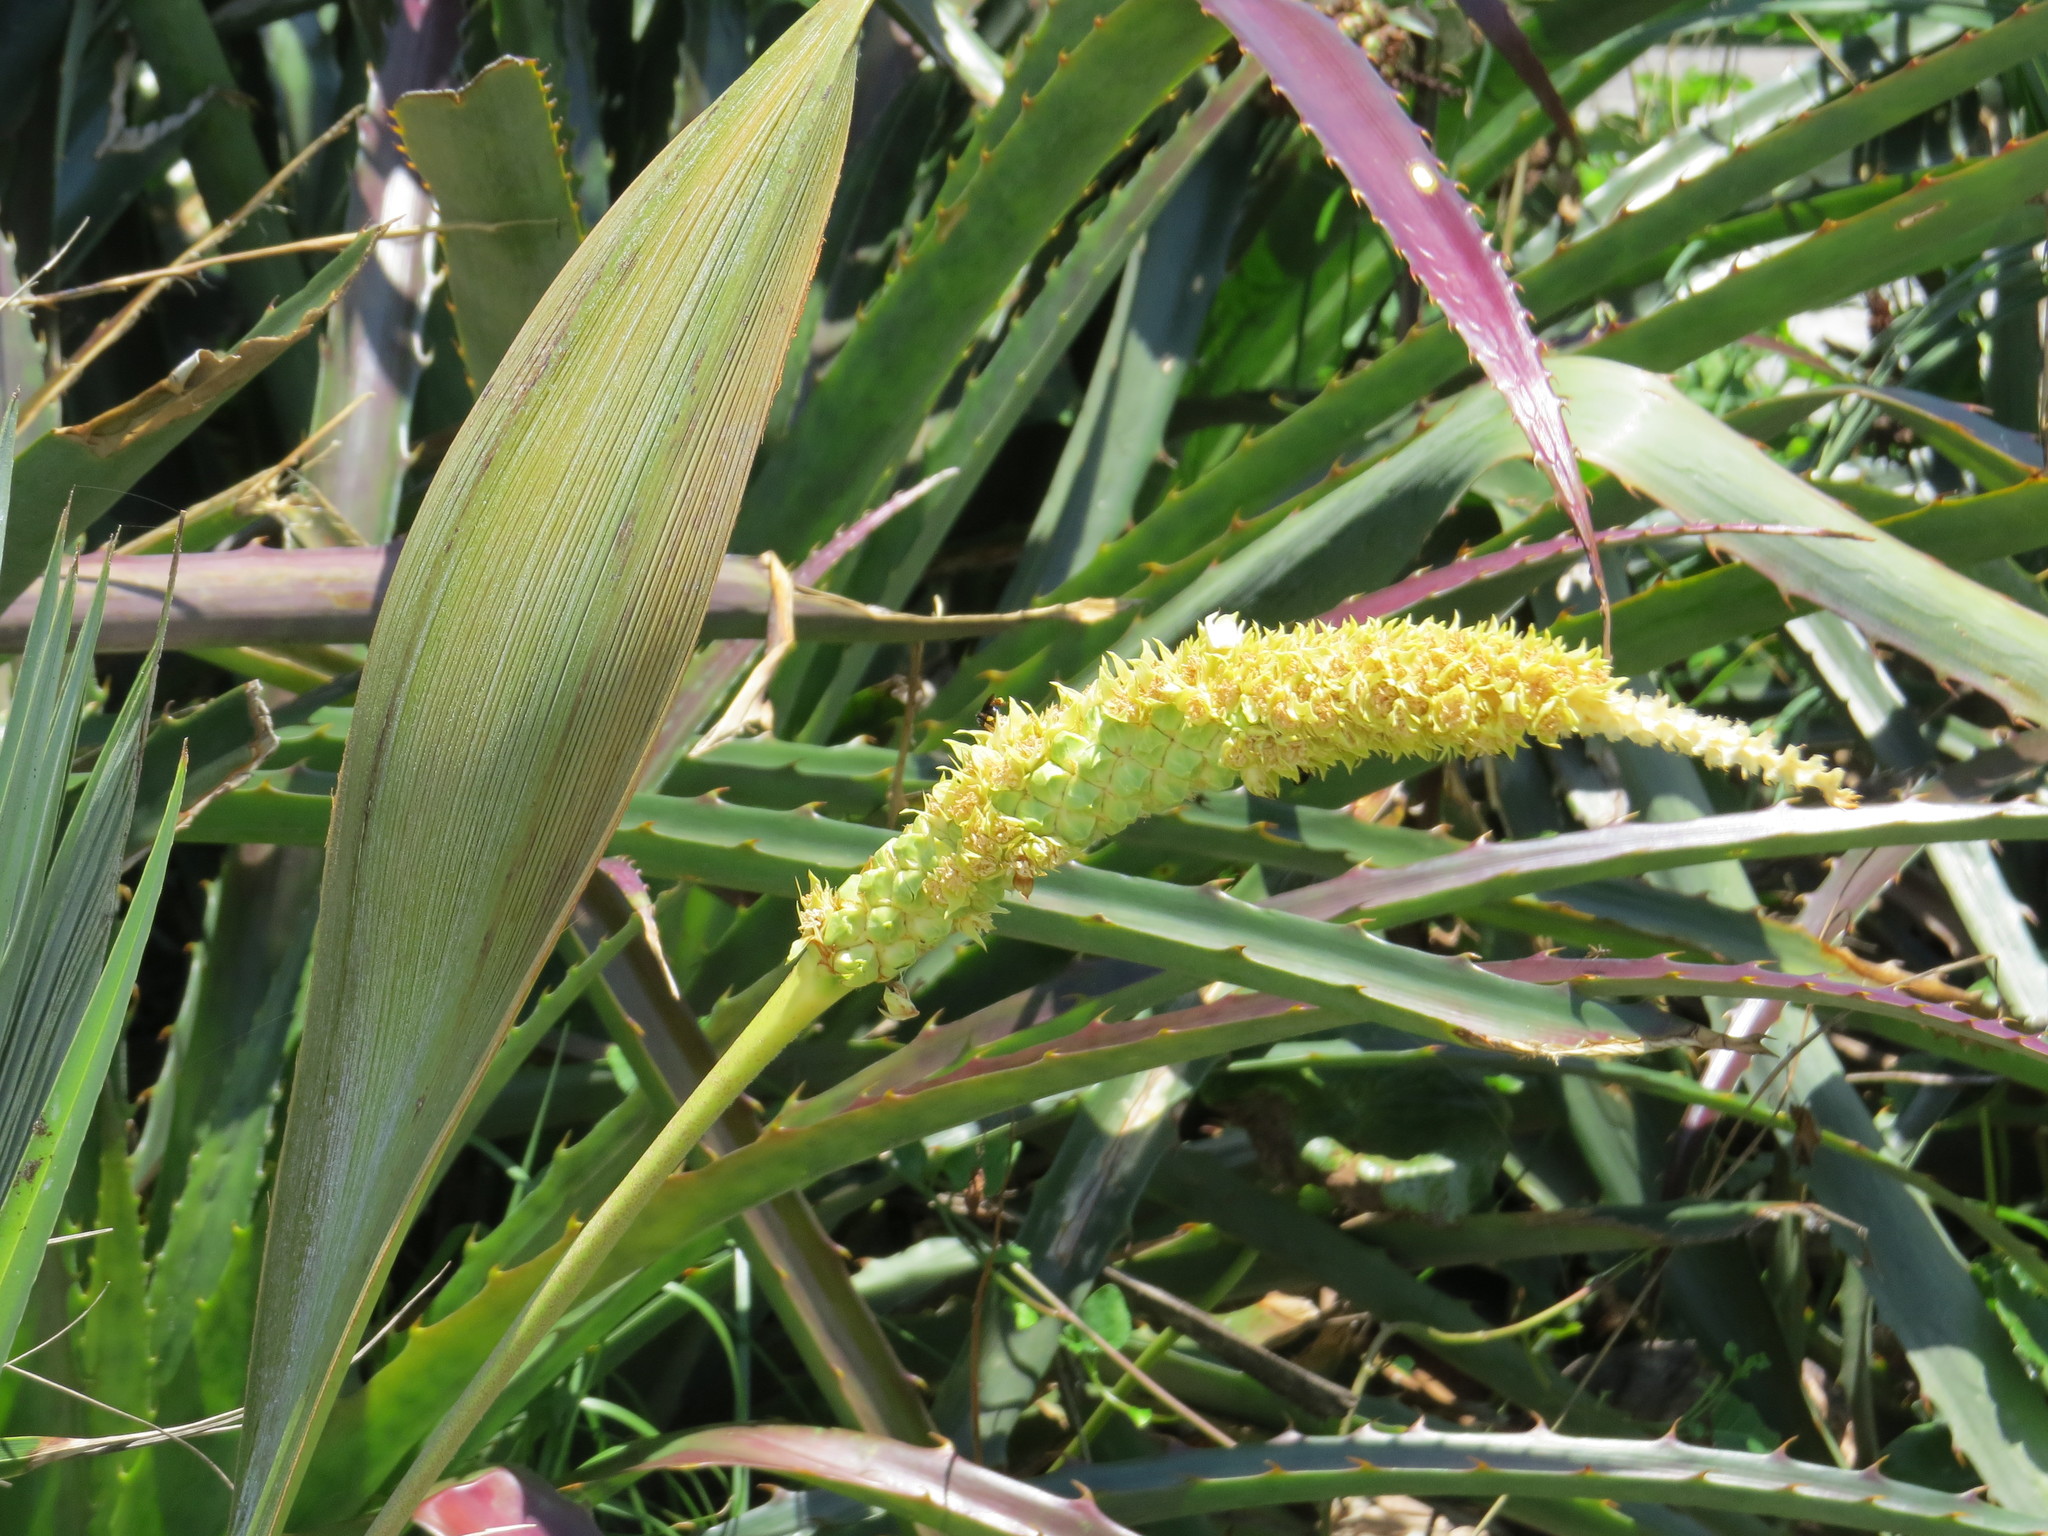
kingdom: Plantae
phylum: Tracheophyta
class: Liliopsida
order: Arecales
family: Arecaceae
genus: Allagoptera
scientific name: Allagoptera arenaria
